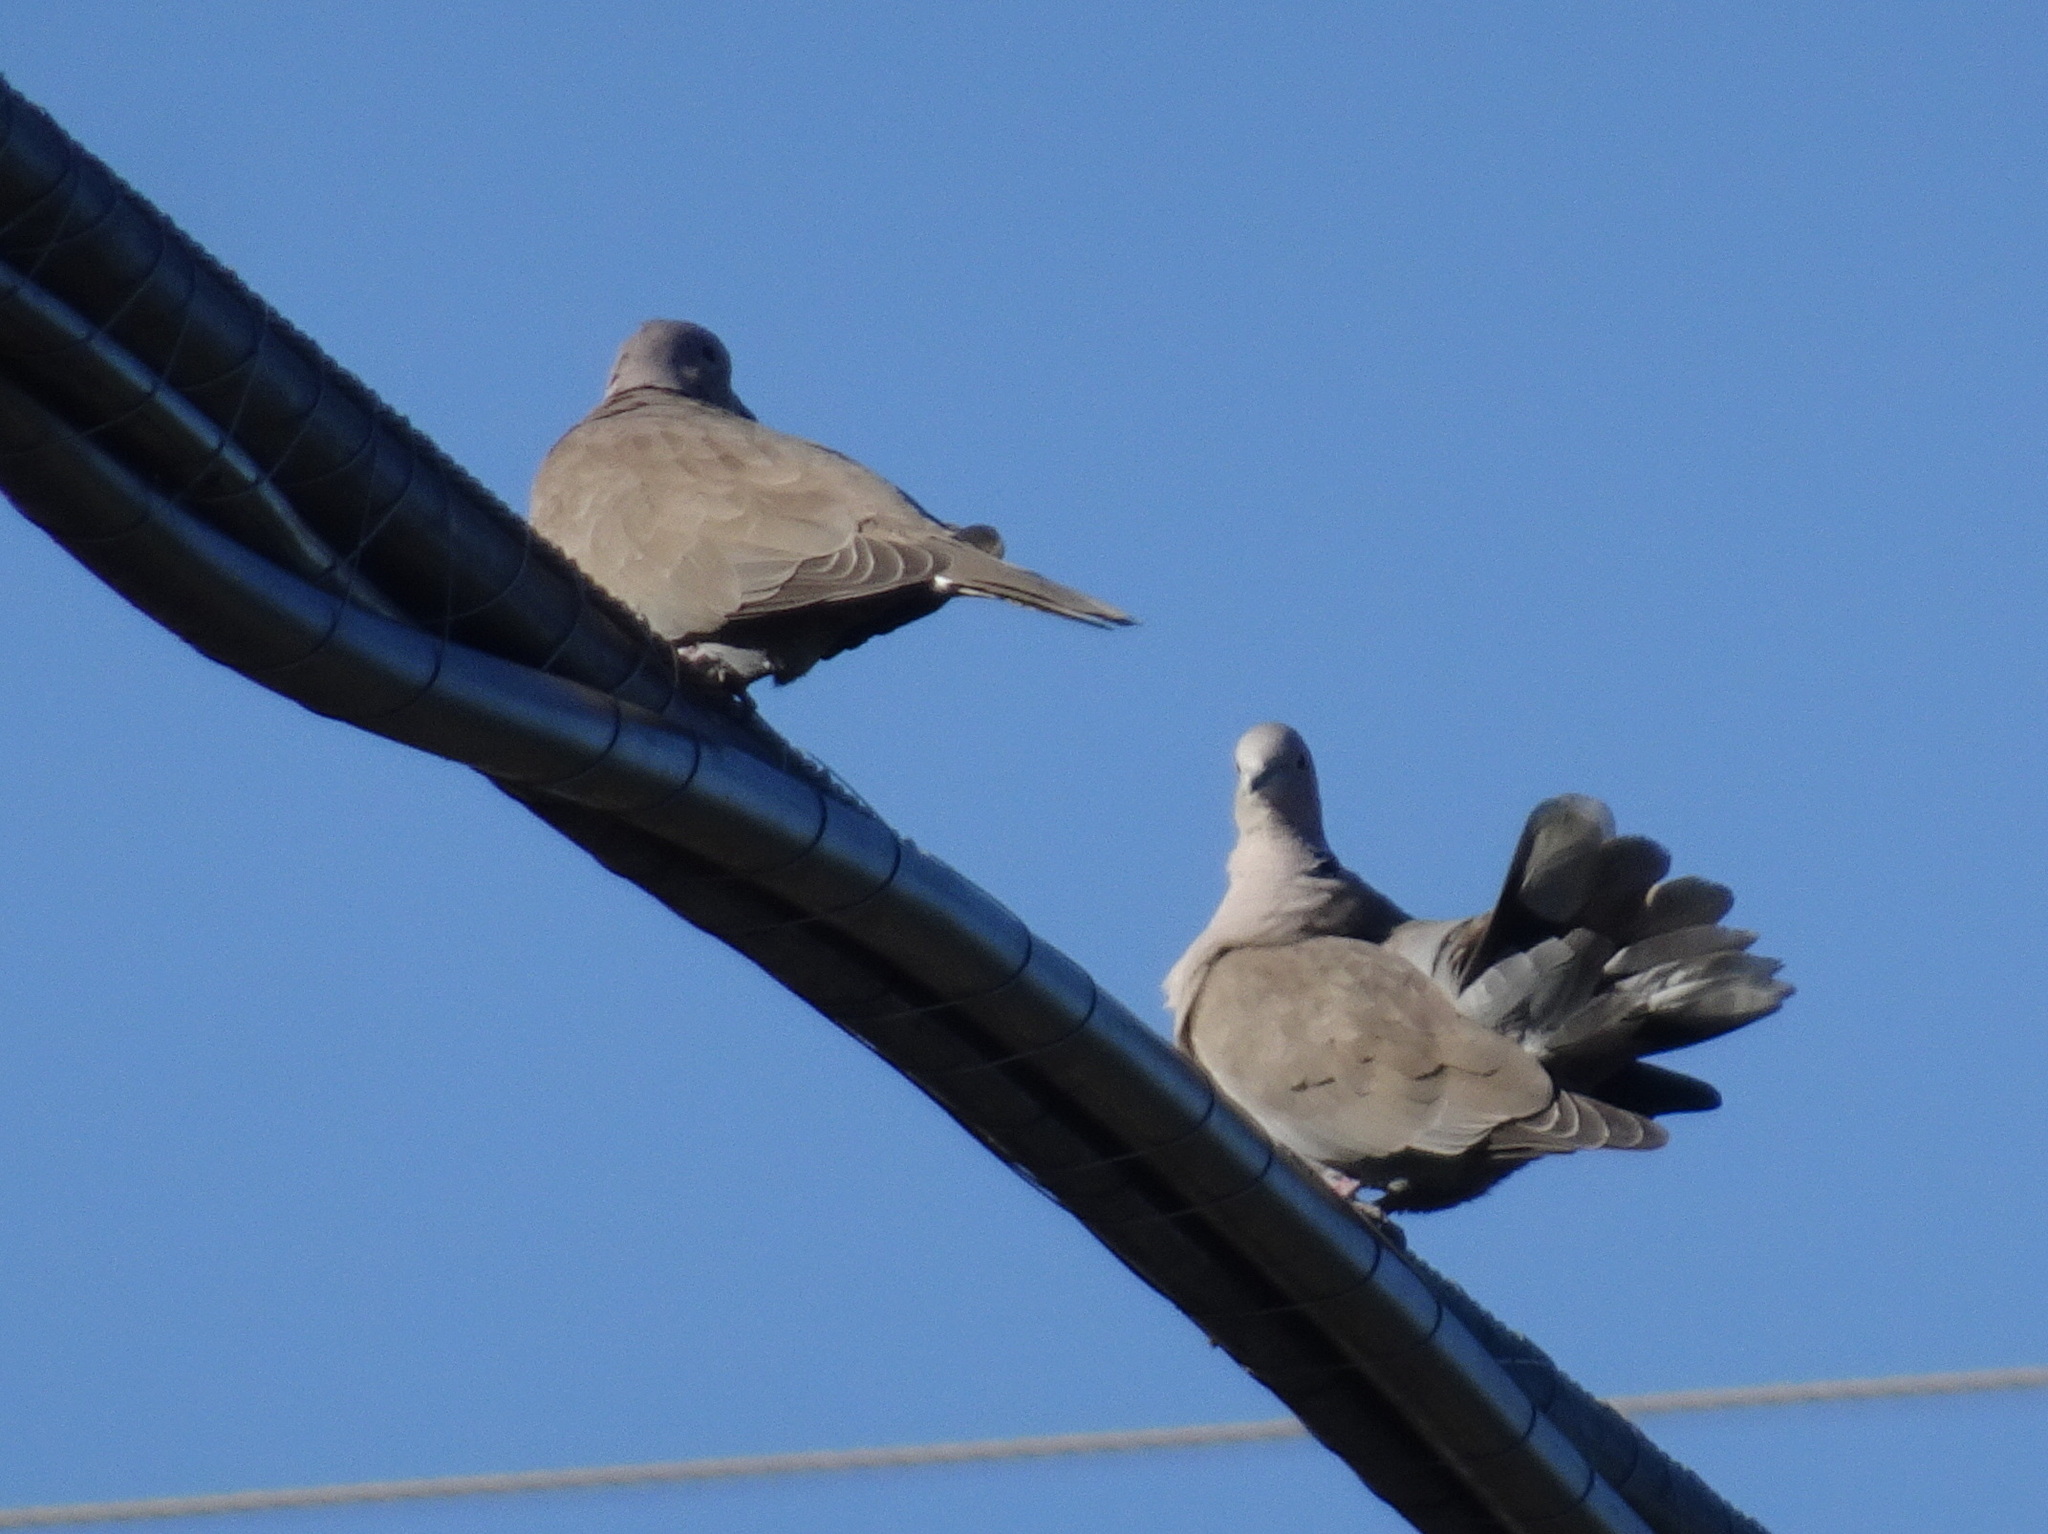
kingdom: Animalia
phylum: Chordata
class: Aves
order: Columbiformes
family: Columbidae
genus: Streptopelia
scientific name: Streptopelia decaocto
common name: Eurasian collared dove
